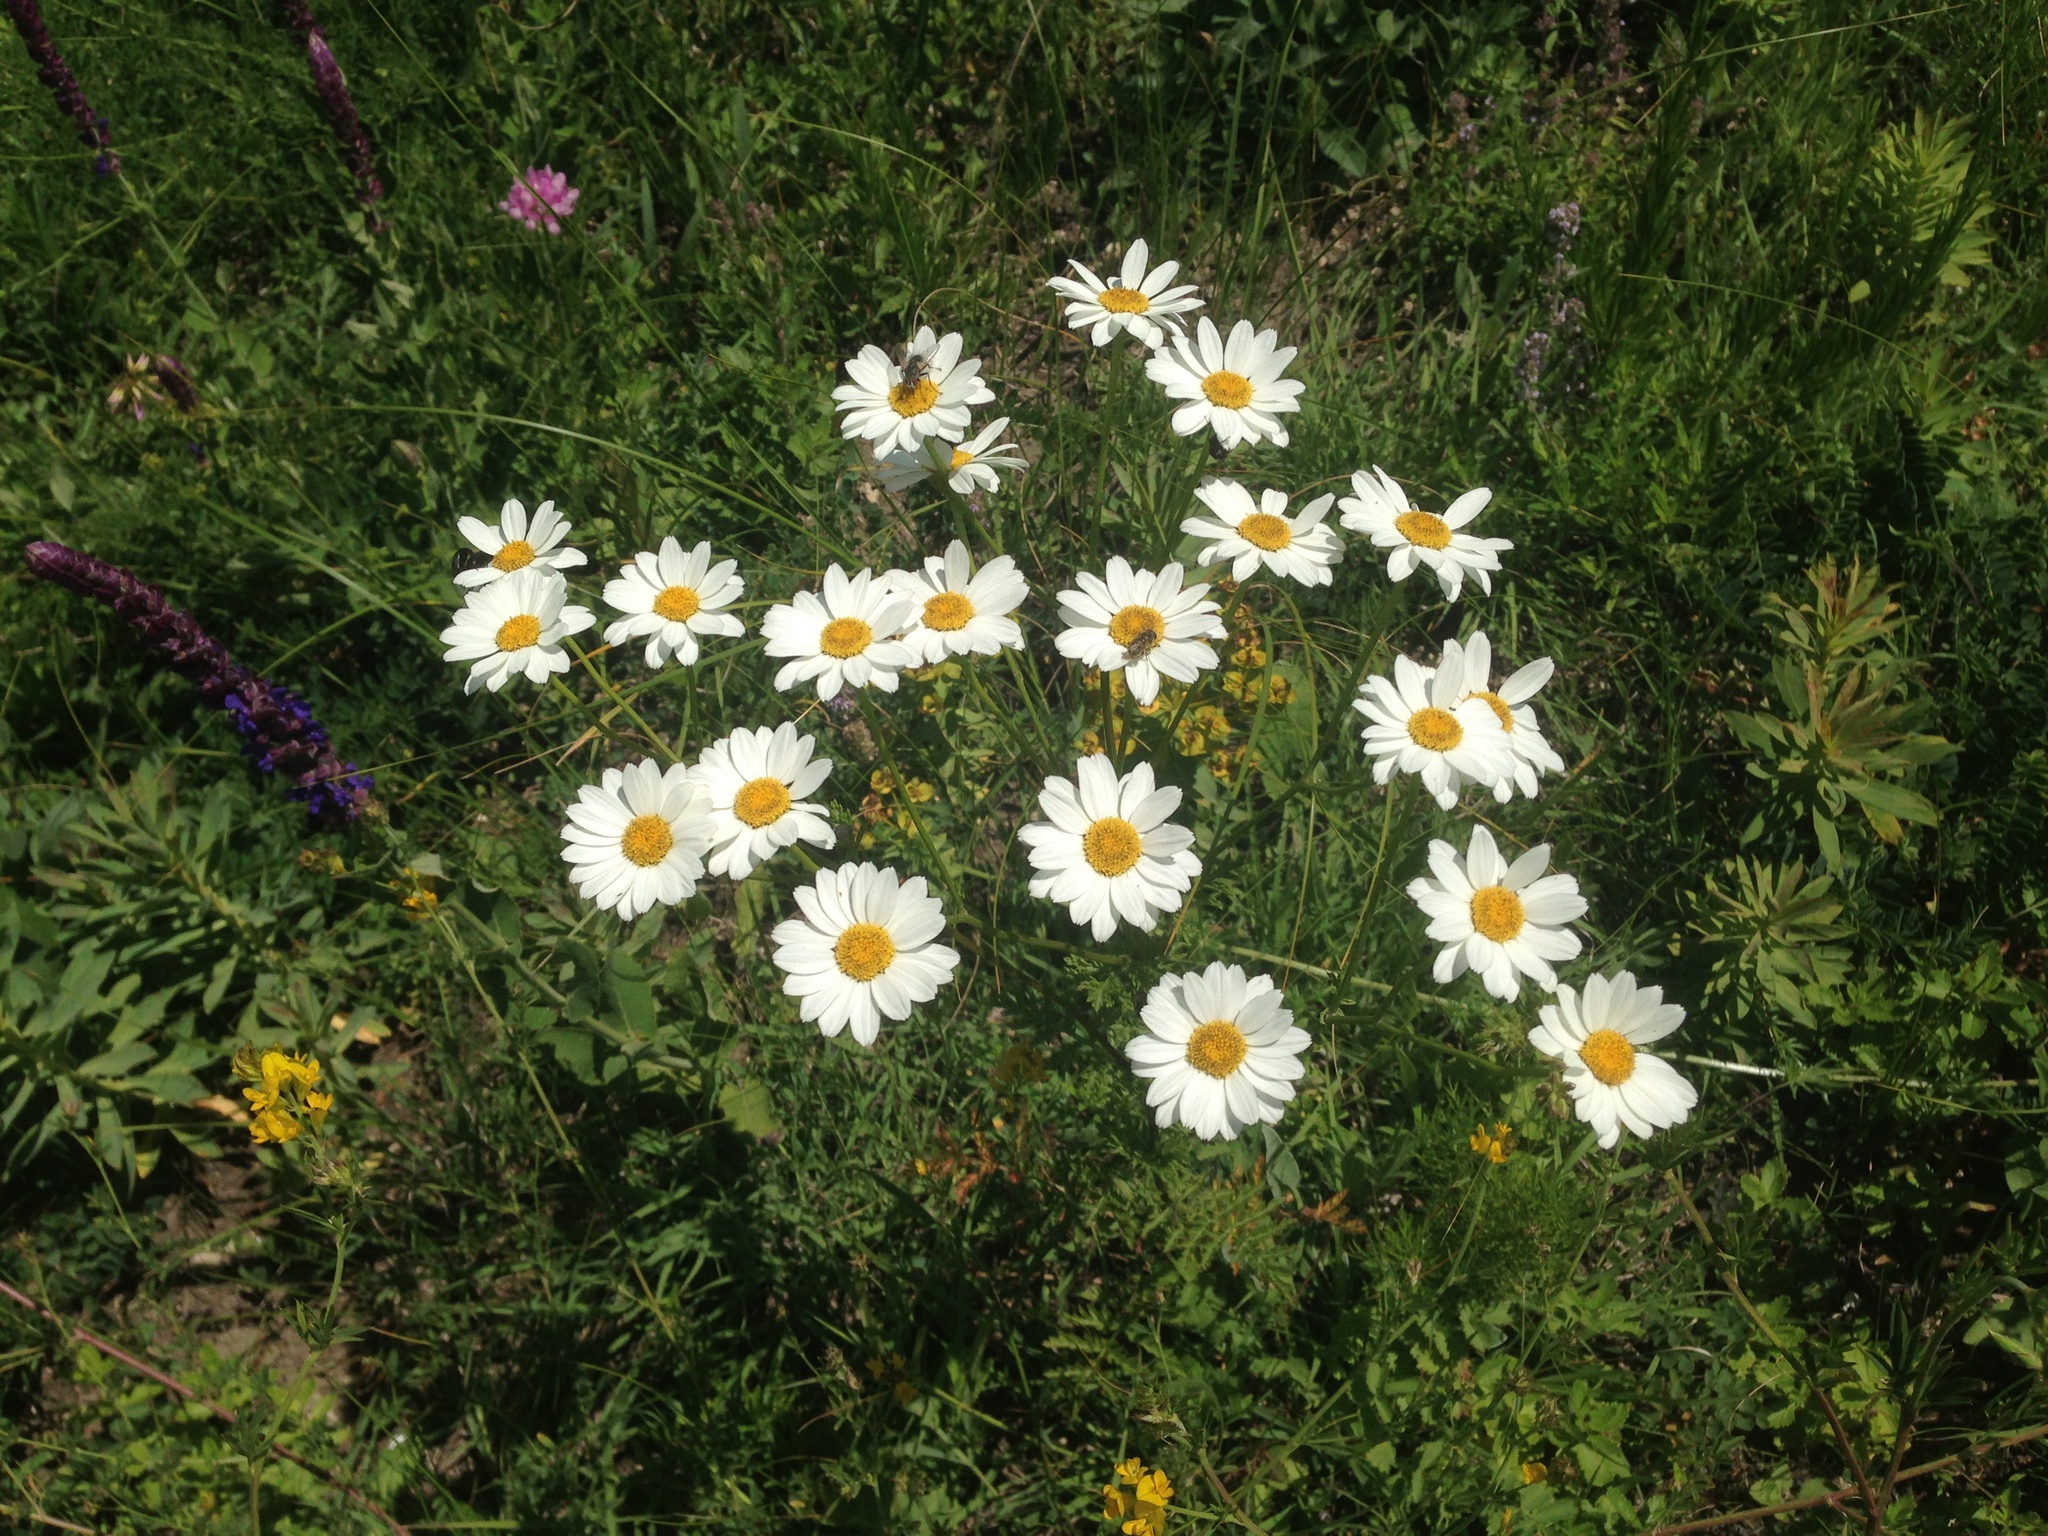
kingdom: Plantae
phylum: Tracheophyta
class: Magnoliopsida
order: Asterales
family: Asteraceae
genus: Tanacetum
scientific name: Tanacetum corymbosum
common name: Scentless feverfew
